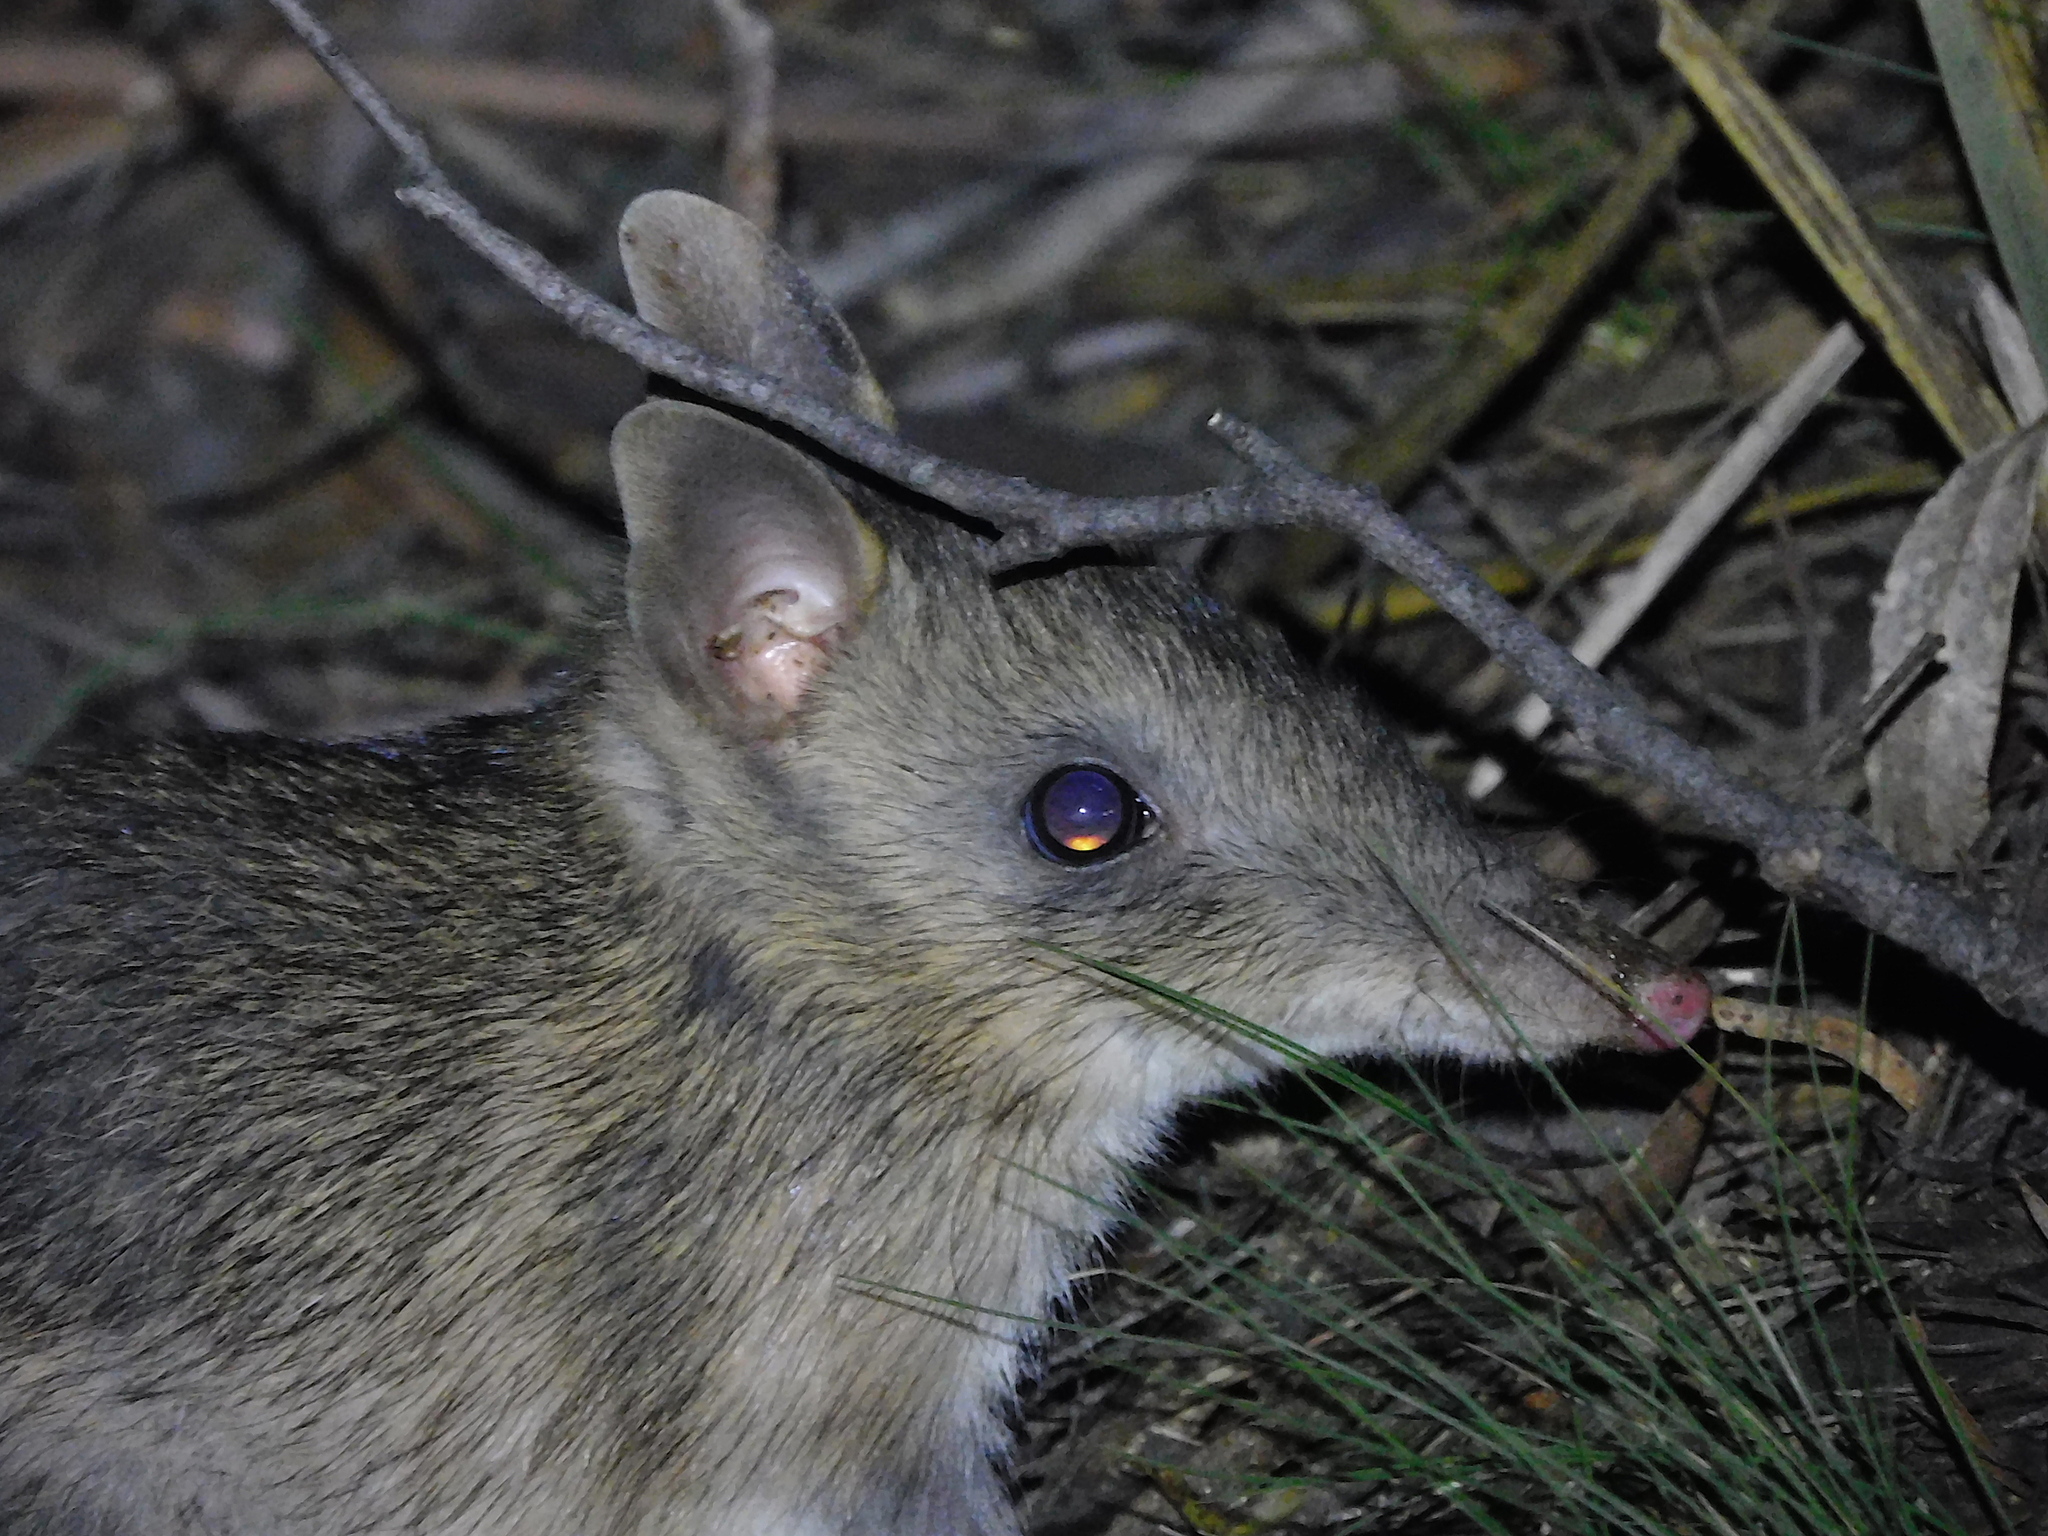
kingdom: Animalia
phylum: Chordata
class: Mammalia
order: Peramelemorphia
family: Peramelidae
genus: Perameles
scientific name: Perameles gunnii
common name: Eastern barred bandicoot
